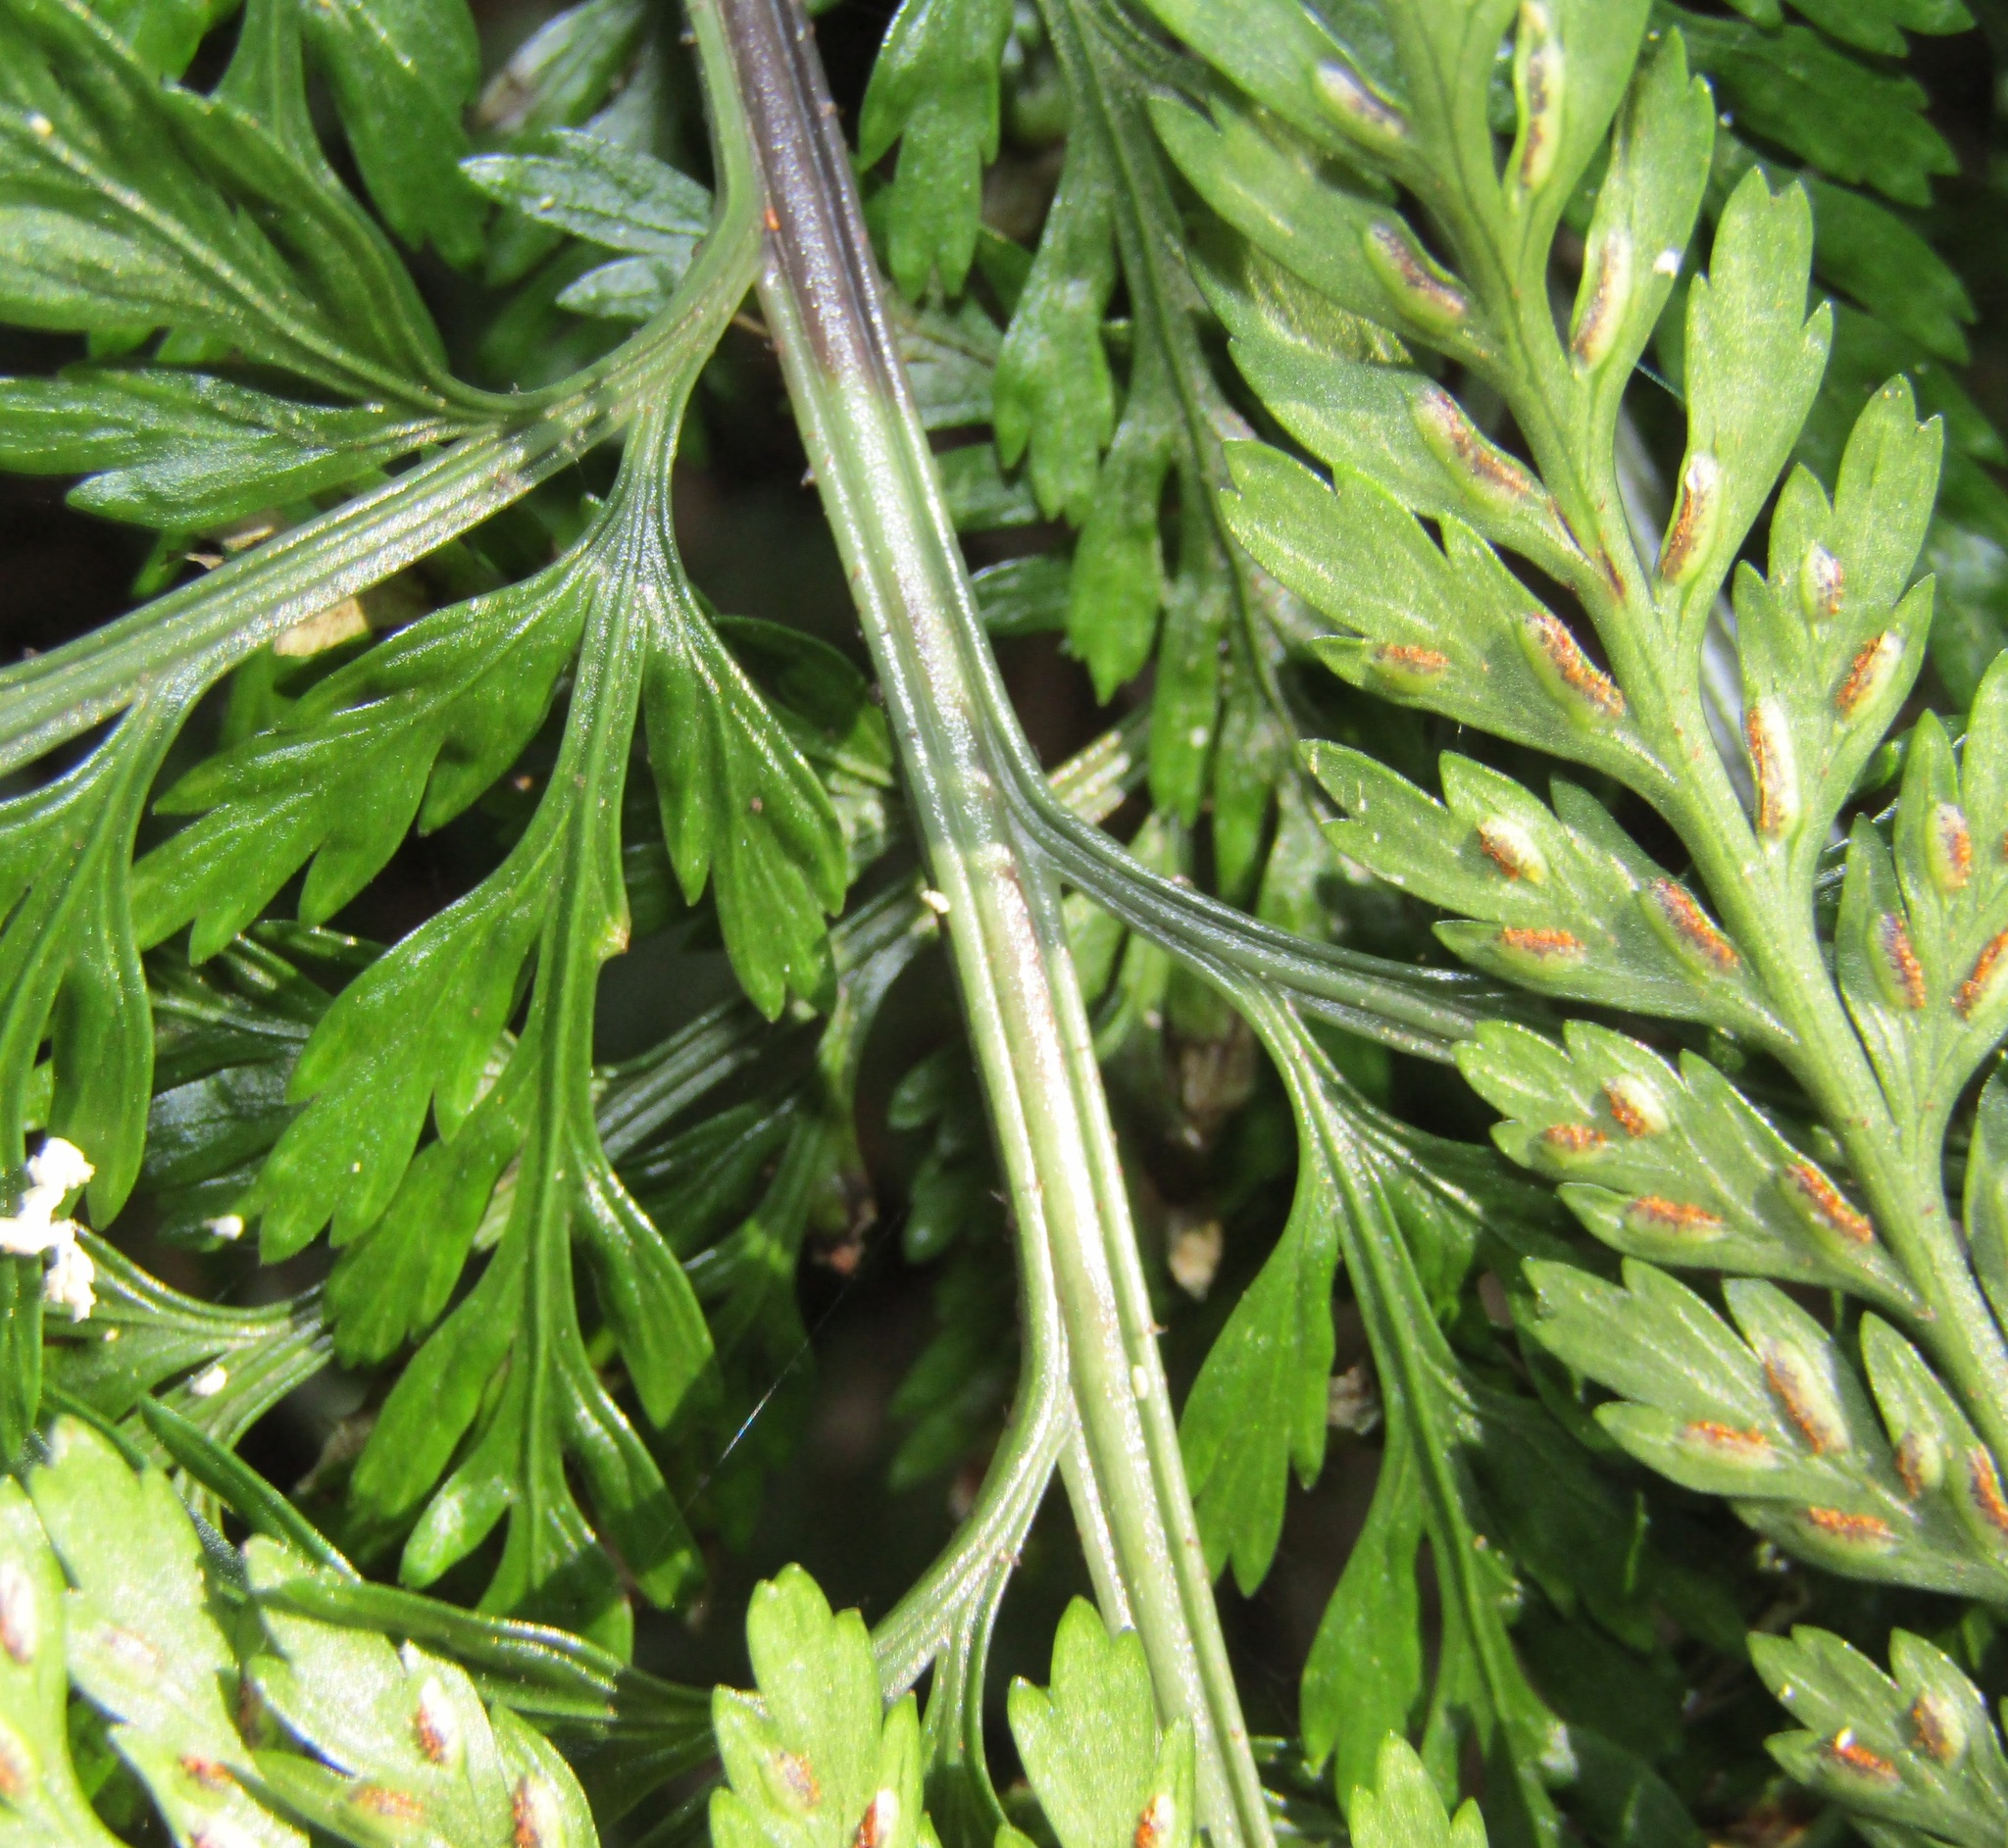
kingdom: Plantae
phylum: Tracheophyta
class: Polypodiopsida
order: Polypodiales
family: Aspleniaceae
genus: Asplenium
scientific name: Asplenium
